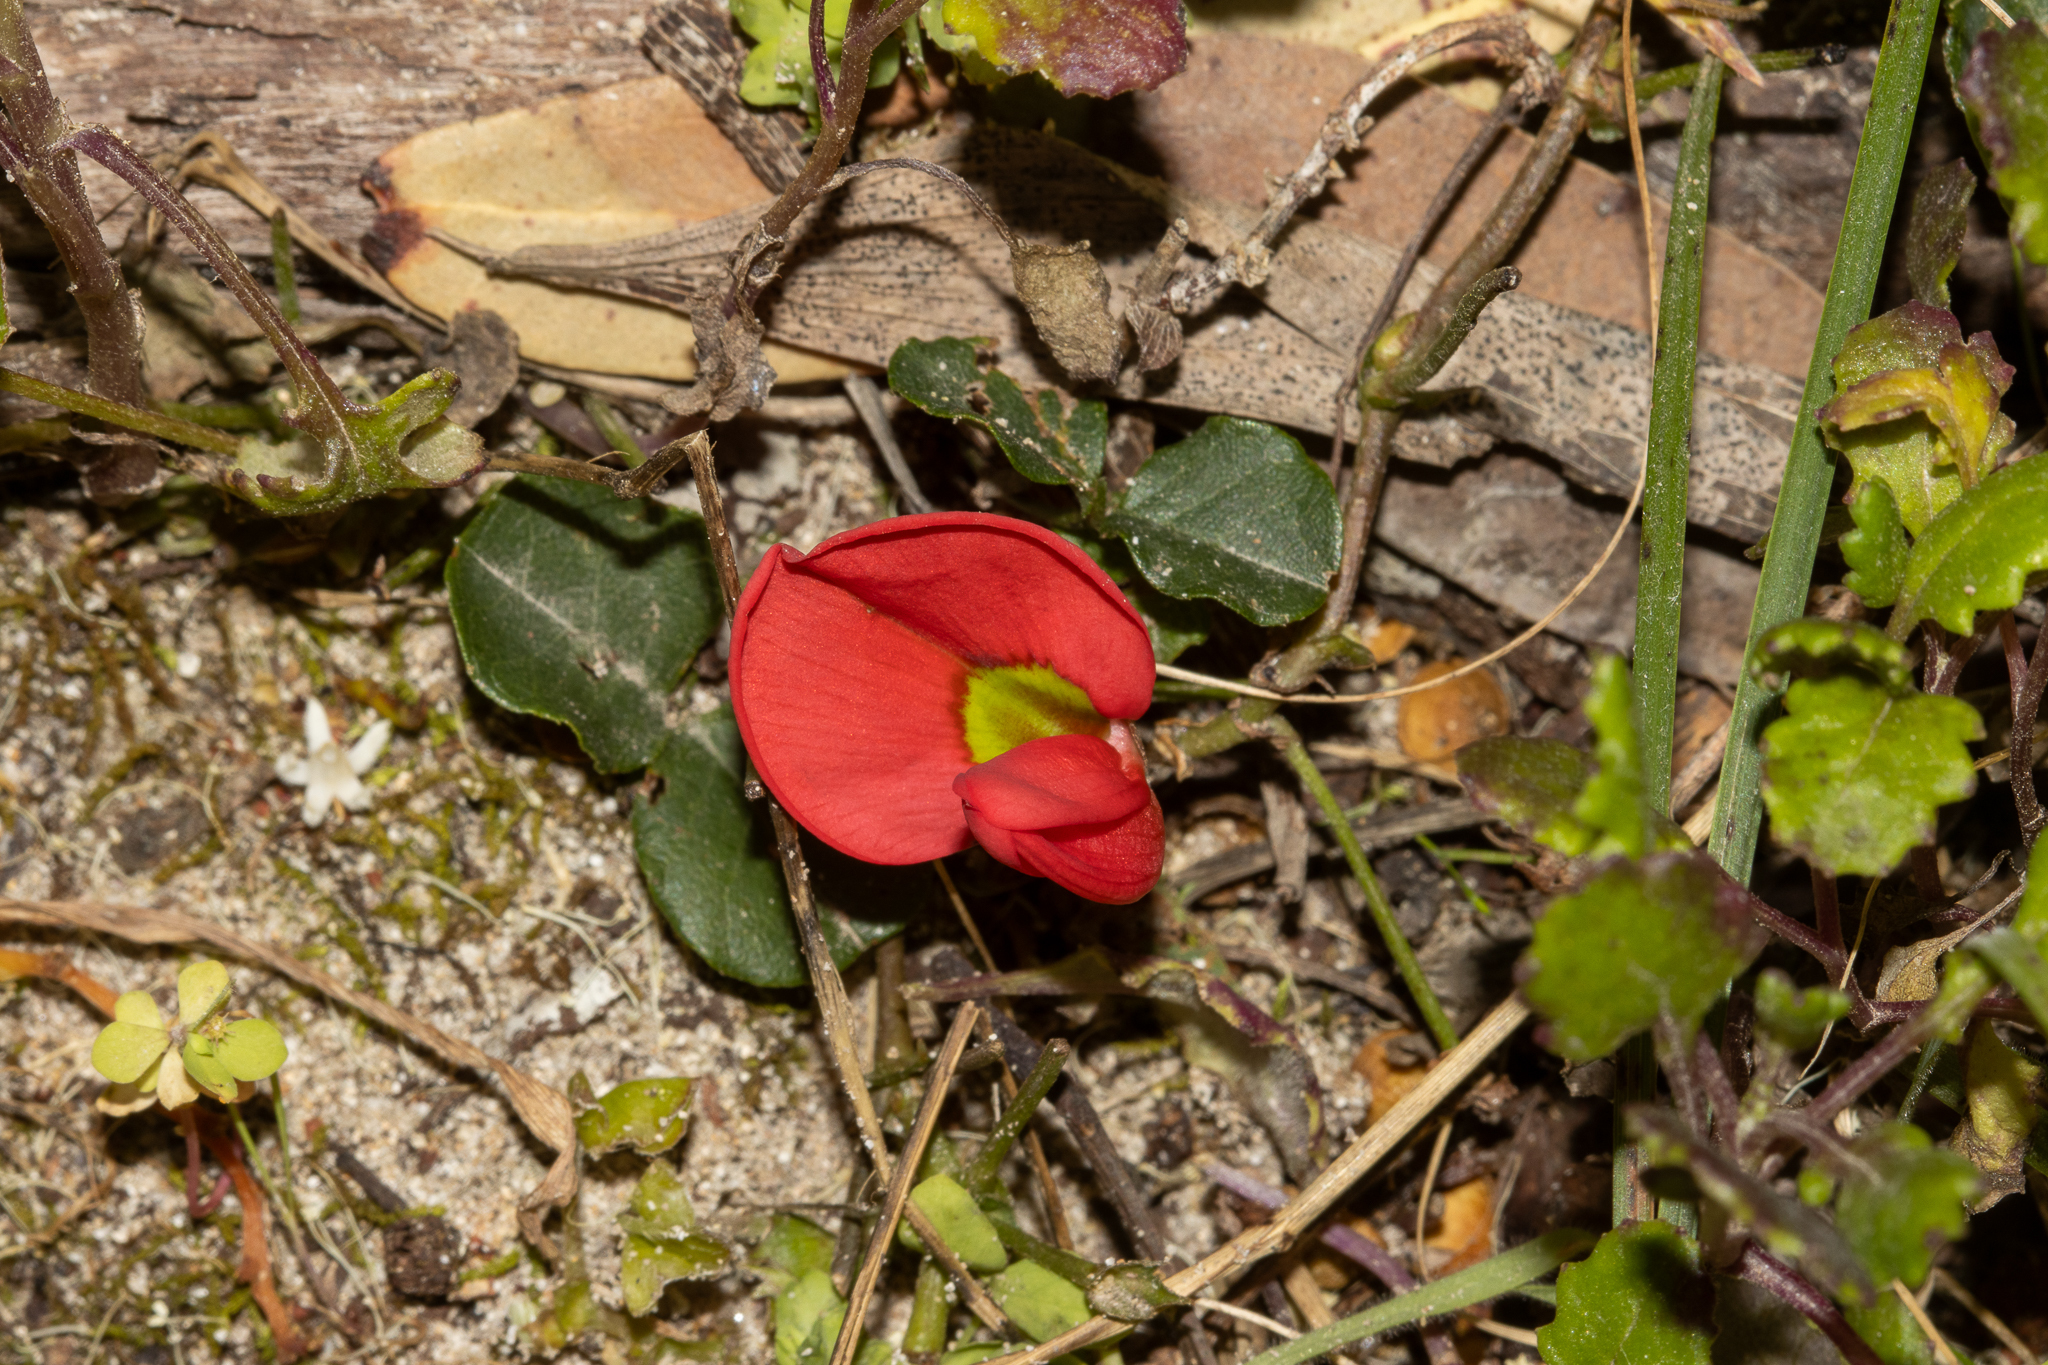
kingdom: Plantae
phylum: Tracheophyta
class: Magnoliopsida
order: Fabales
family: Fabaceae
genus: Kennedia
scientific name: Kennedia prostrata
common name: Running-postman
